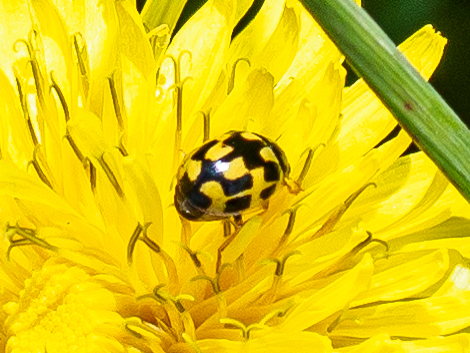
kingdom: Animalia
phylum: Arthropoda
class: Insecta
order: Coleoptera
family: Coccinellidae
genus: Propylaea
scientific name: Propylaea quatuordecimpunctata
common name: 14-spotted ladybird beetle
